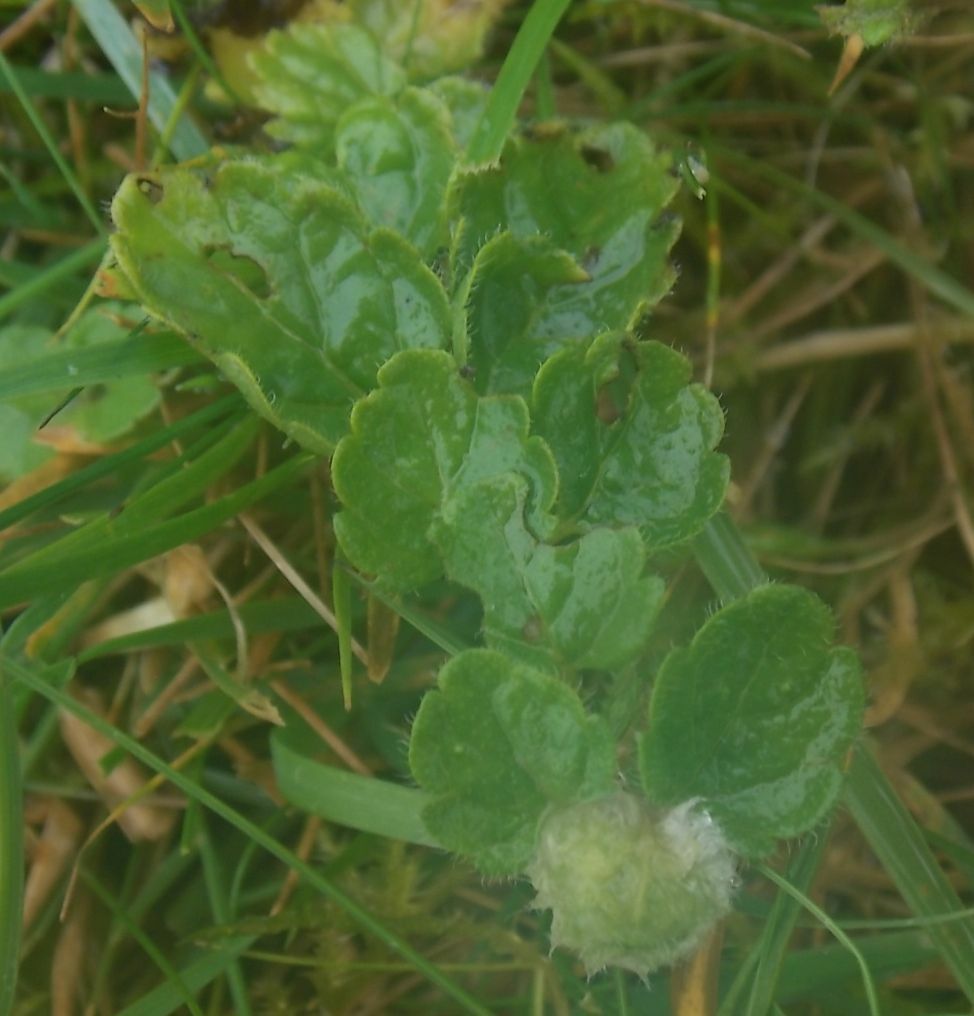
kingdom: Plantae
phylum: Tracheophyta
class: Magnoliopsida
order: Lamiales
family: Plantaginaceae
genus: Veronica
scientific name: Veronica chamaedrys
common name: Germander speedwell
